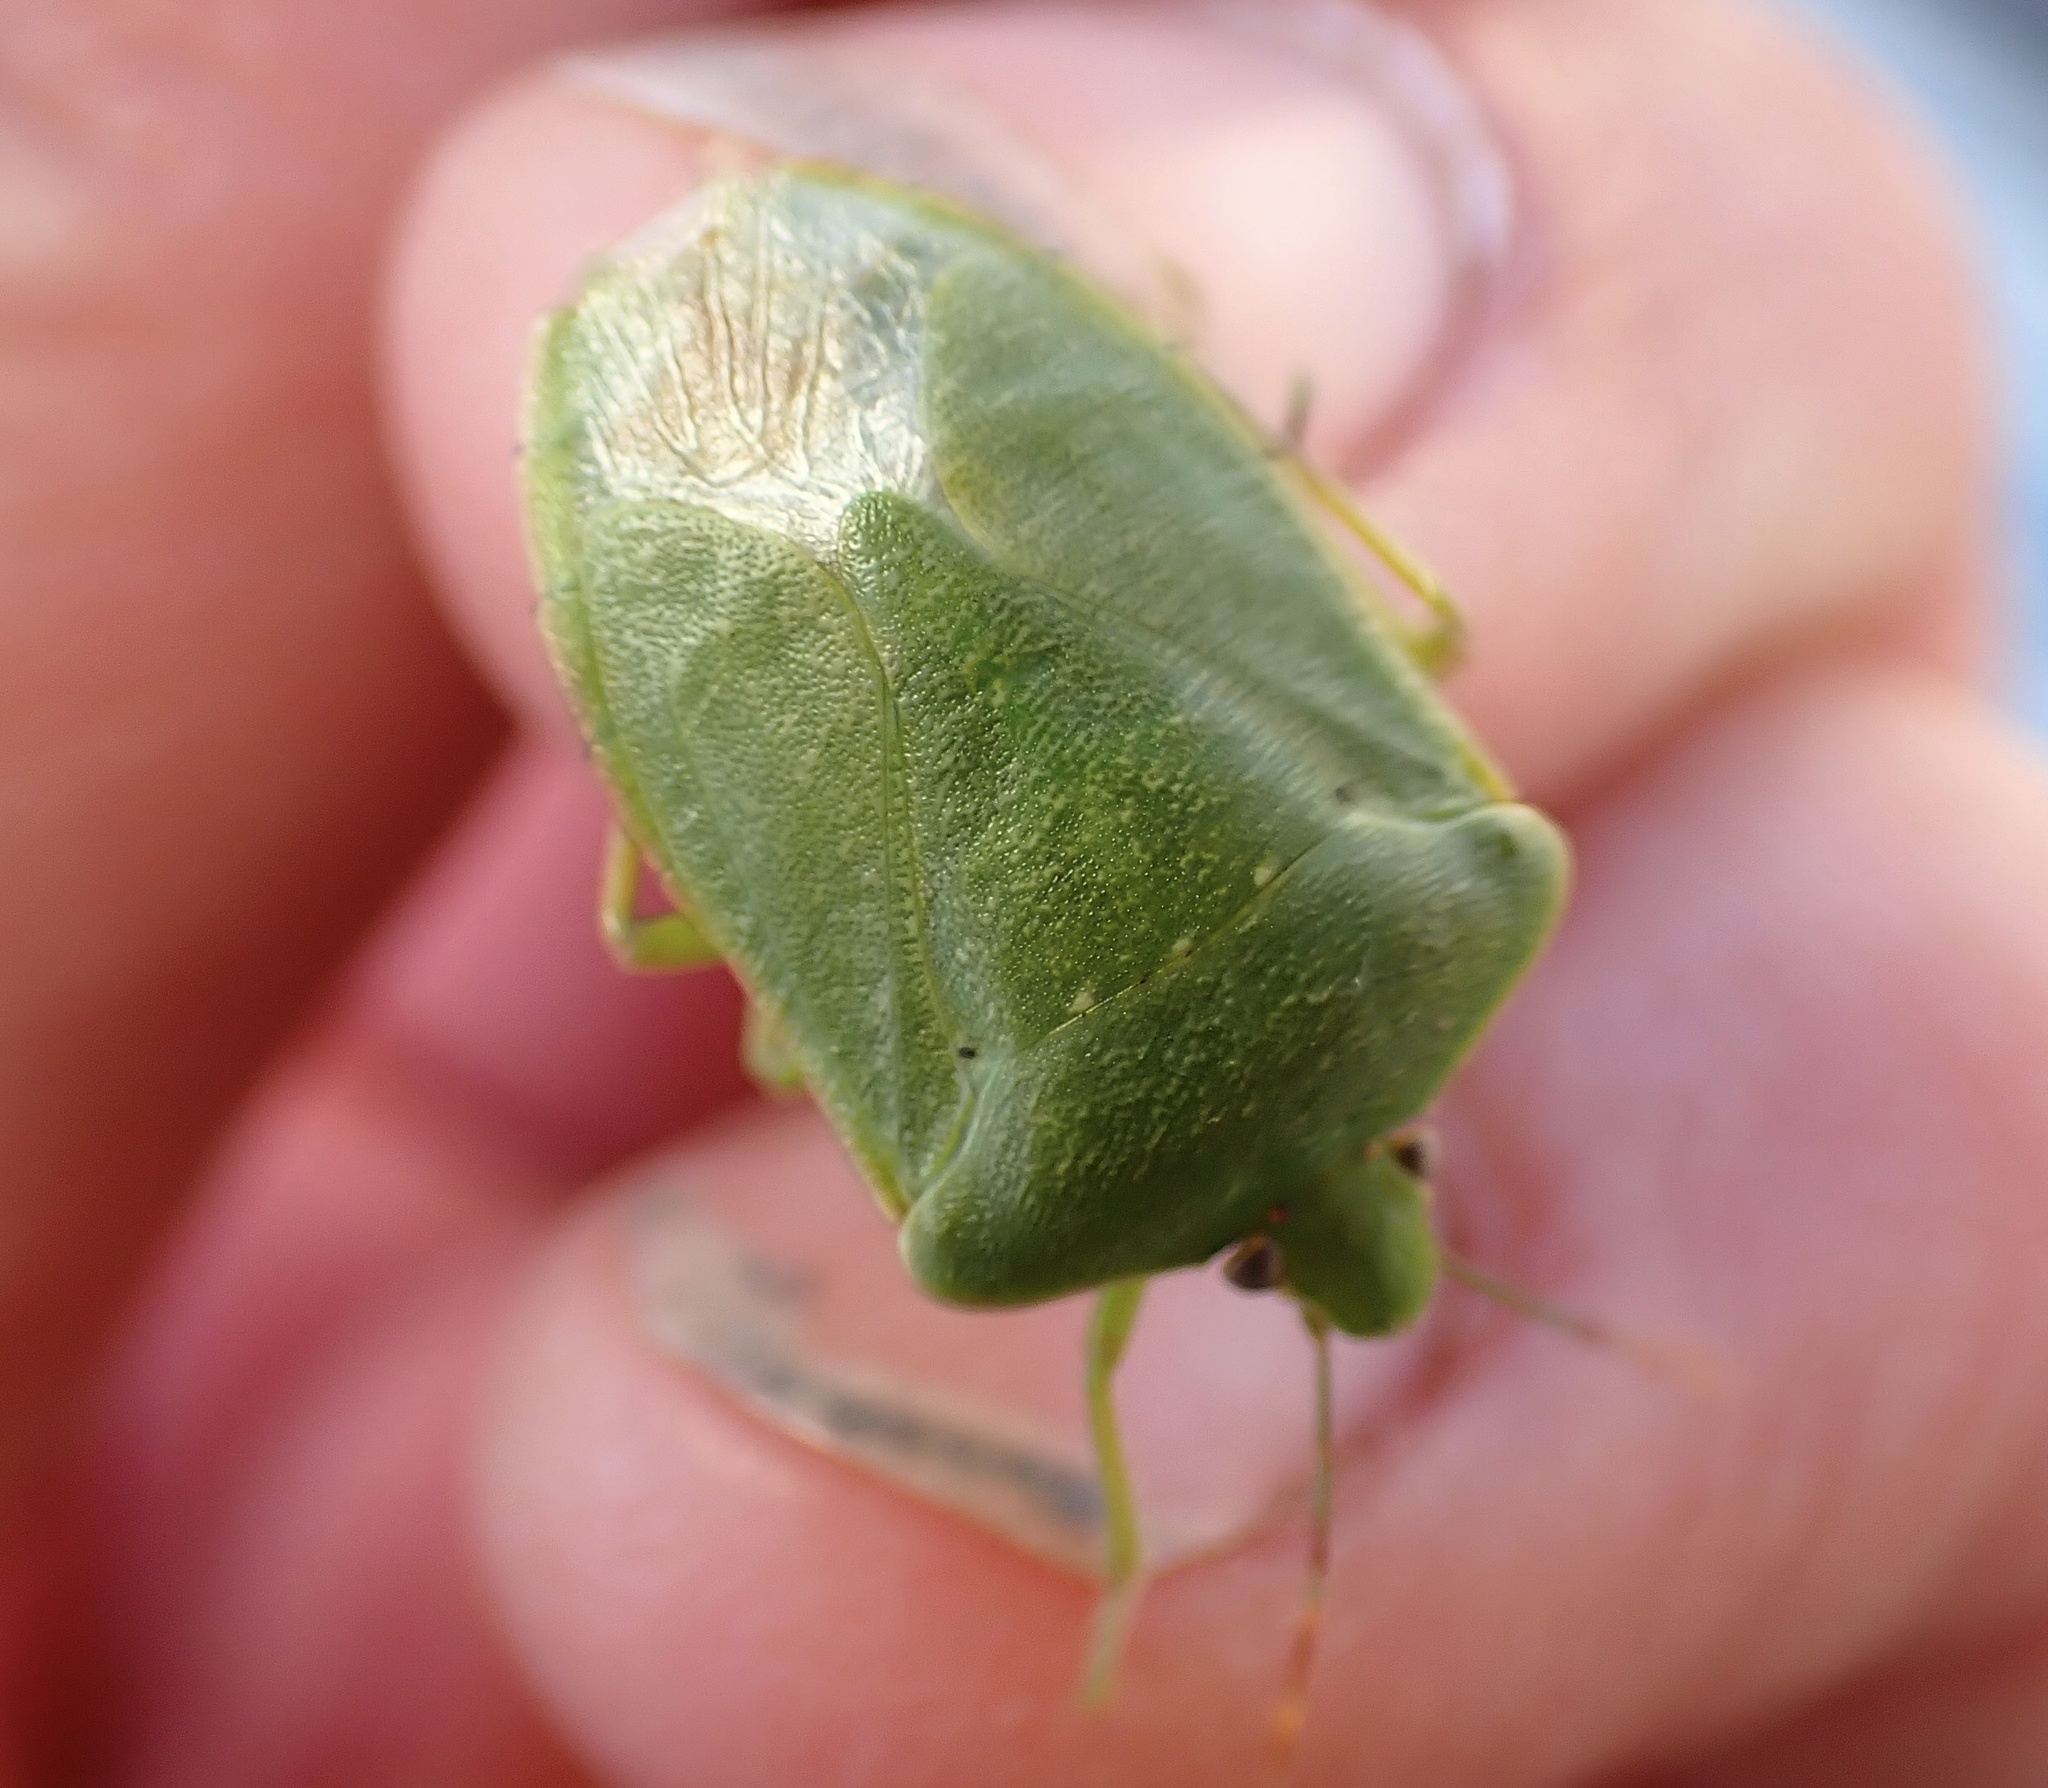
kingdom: Animalia
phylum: Arthropoda
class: Insecta
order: Hemiptera
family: Pentatomidae
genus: Nezara
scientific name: Nezara viridula
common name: Southern green stink bug
